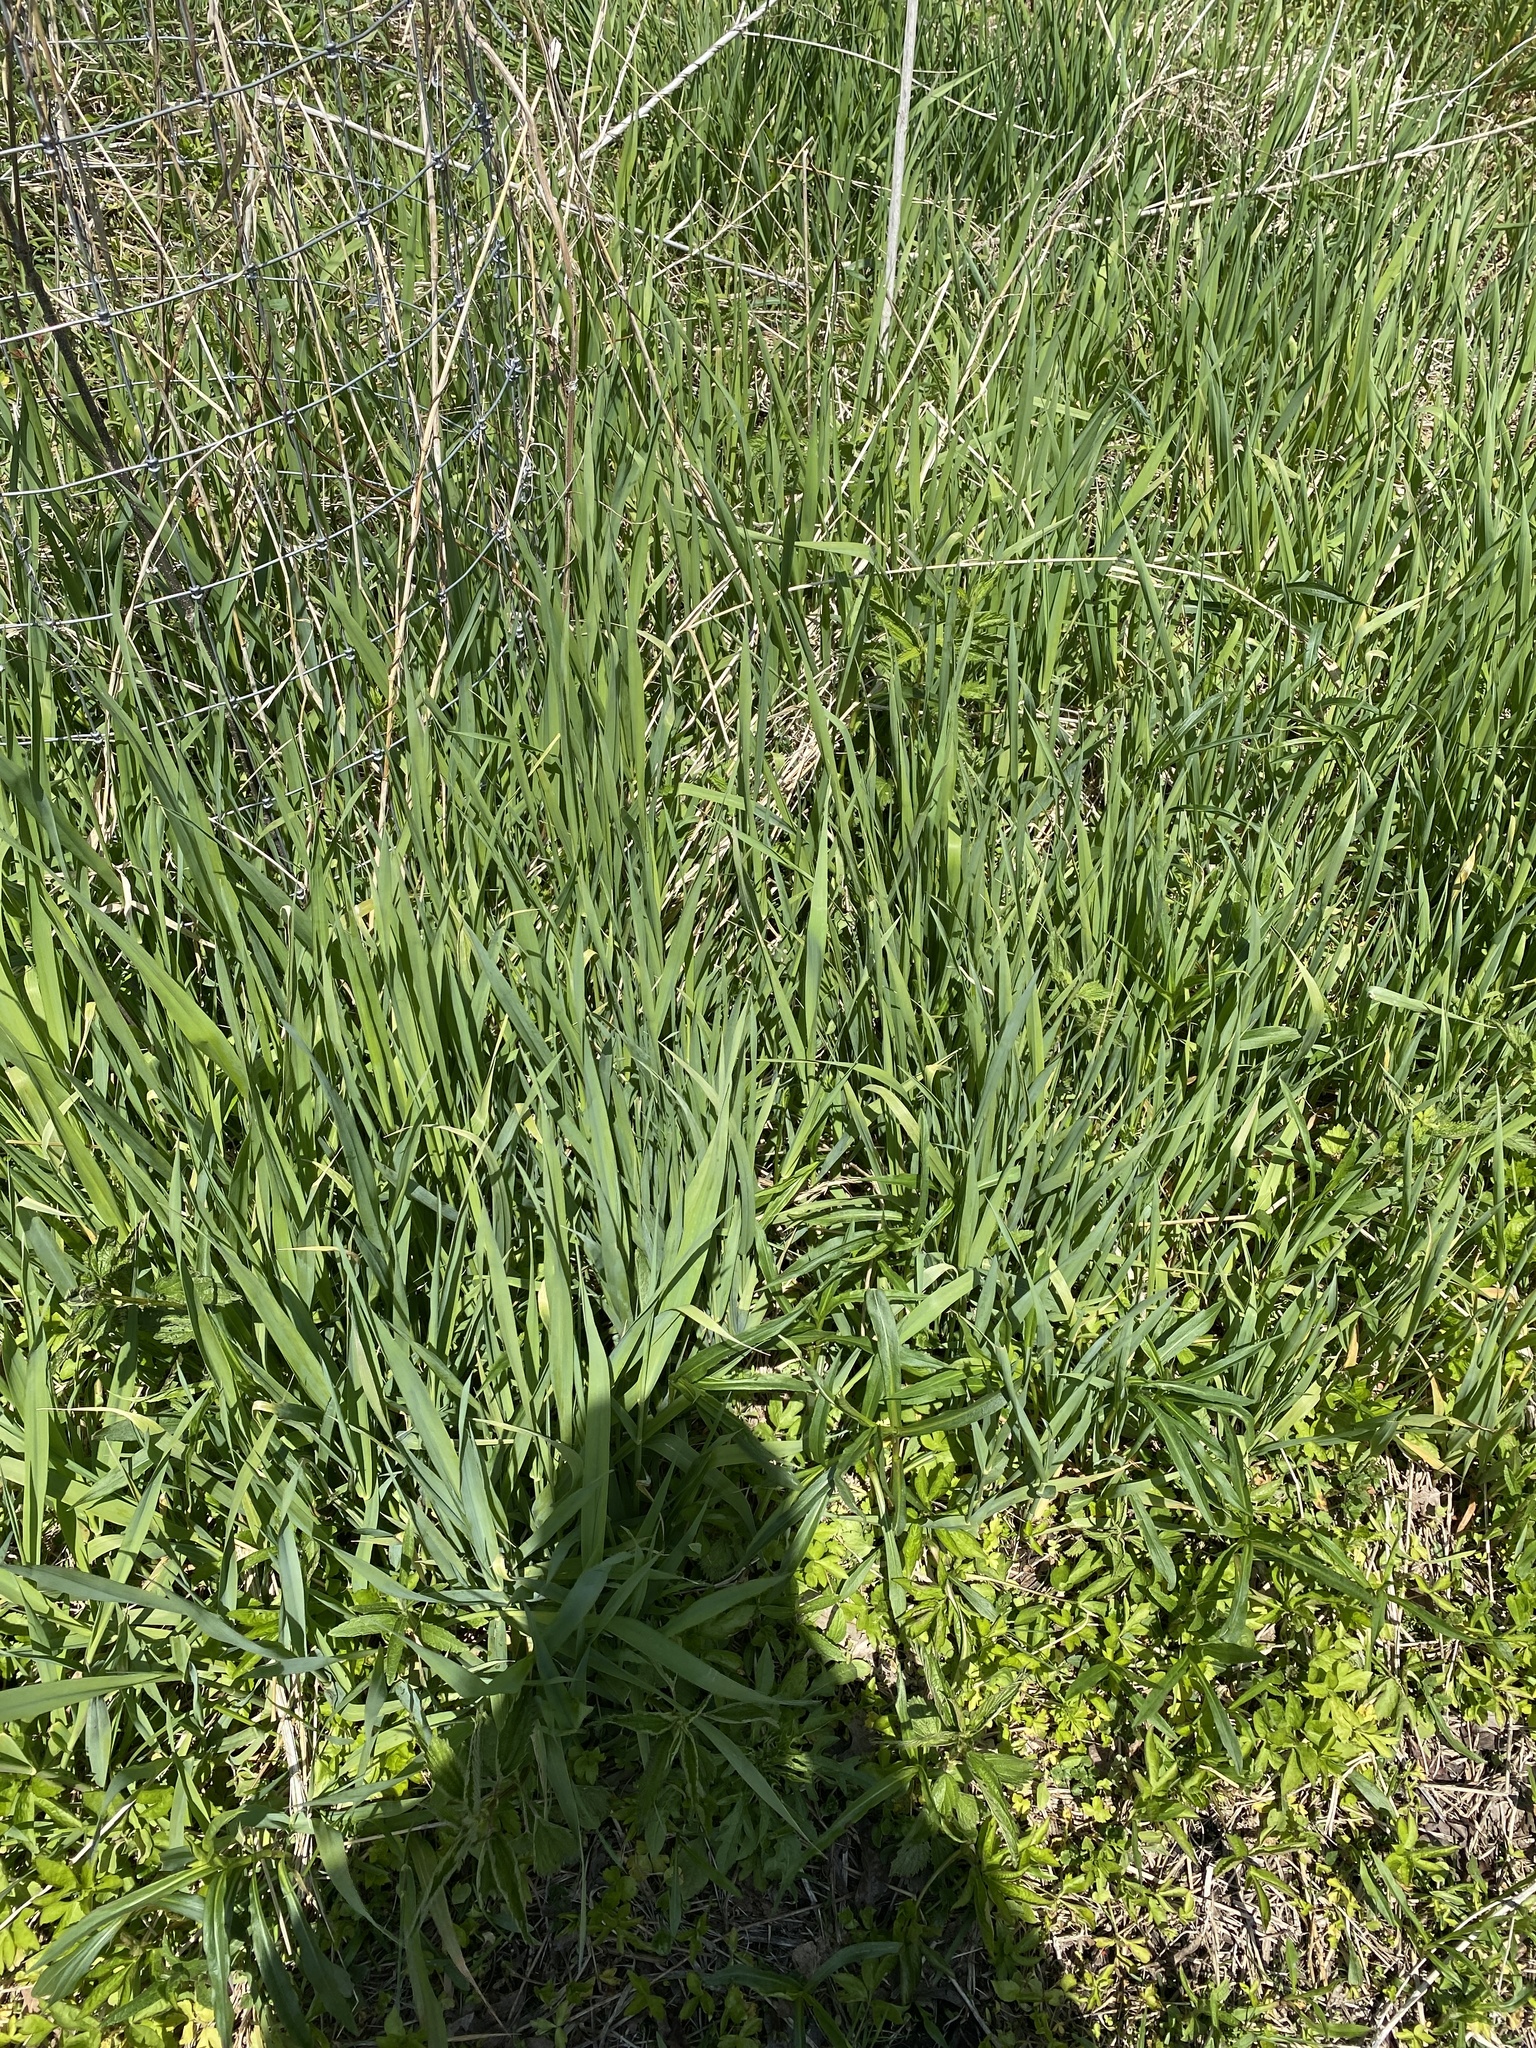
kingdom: Plantae
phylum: Tracheophyta
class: Liliopsida
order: Poales
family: Poaceae
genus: Phalaris
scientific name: Phalaris arundinacea
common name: Reed canary-grass
